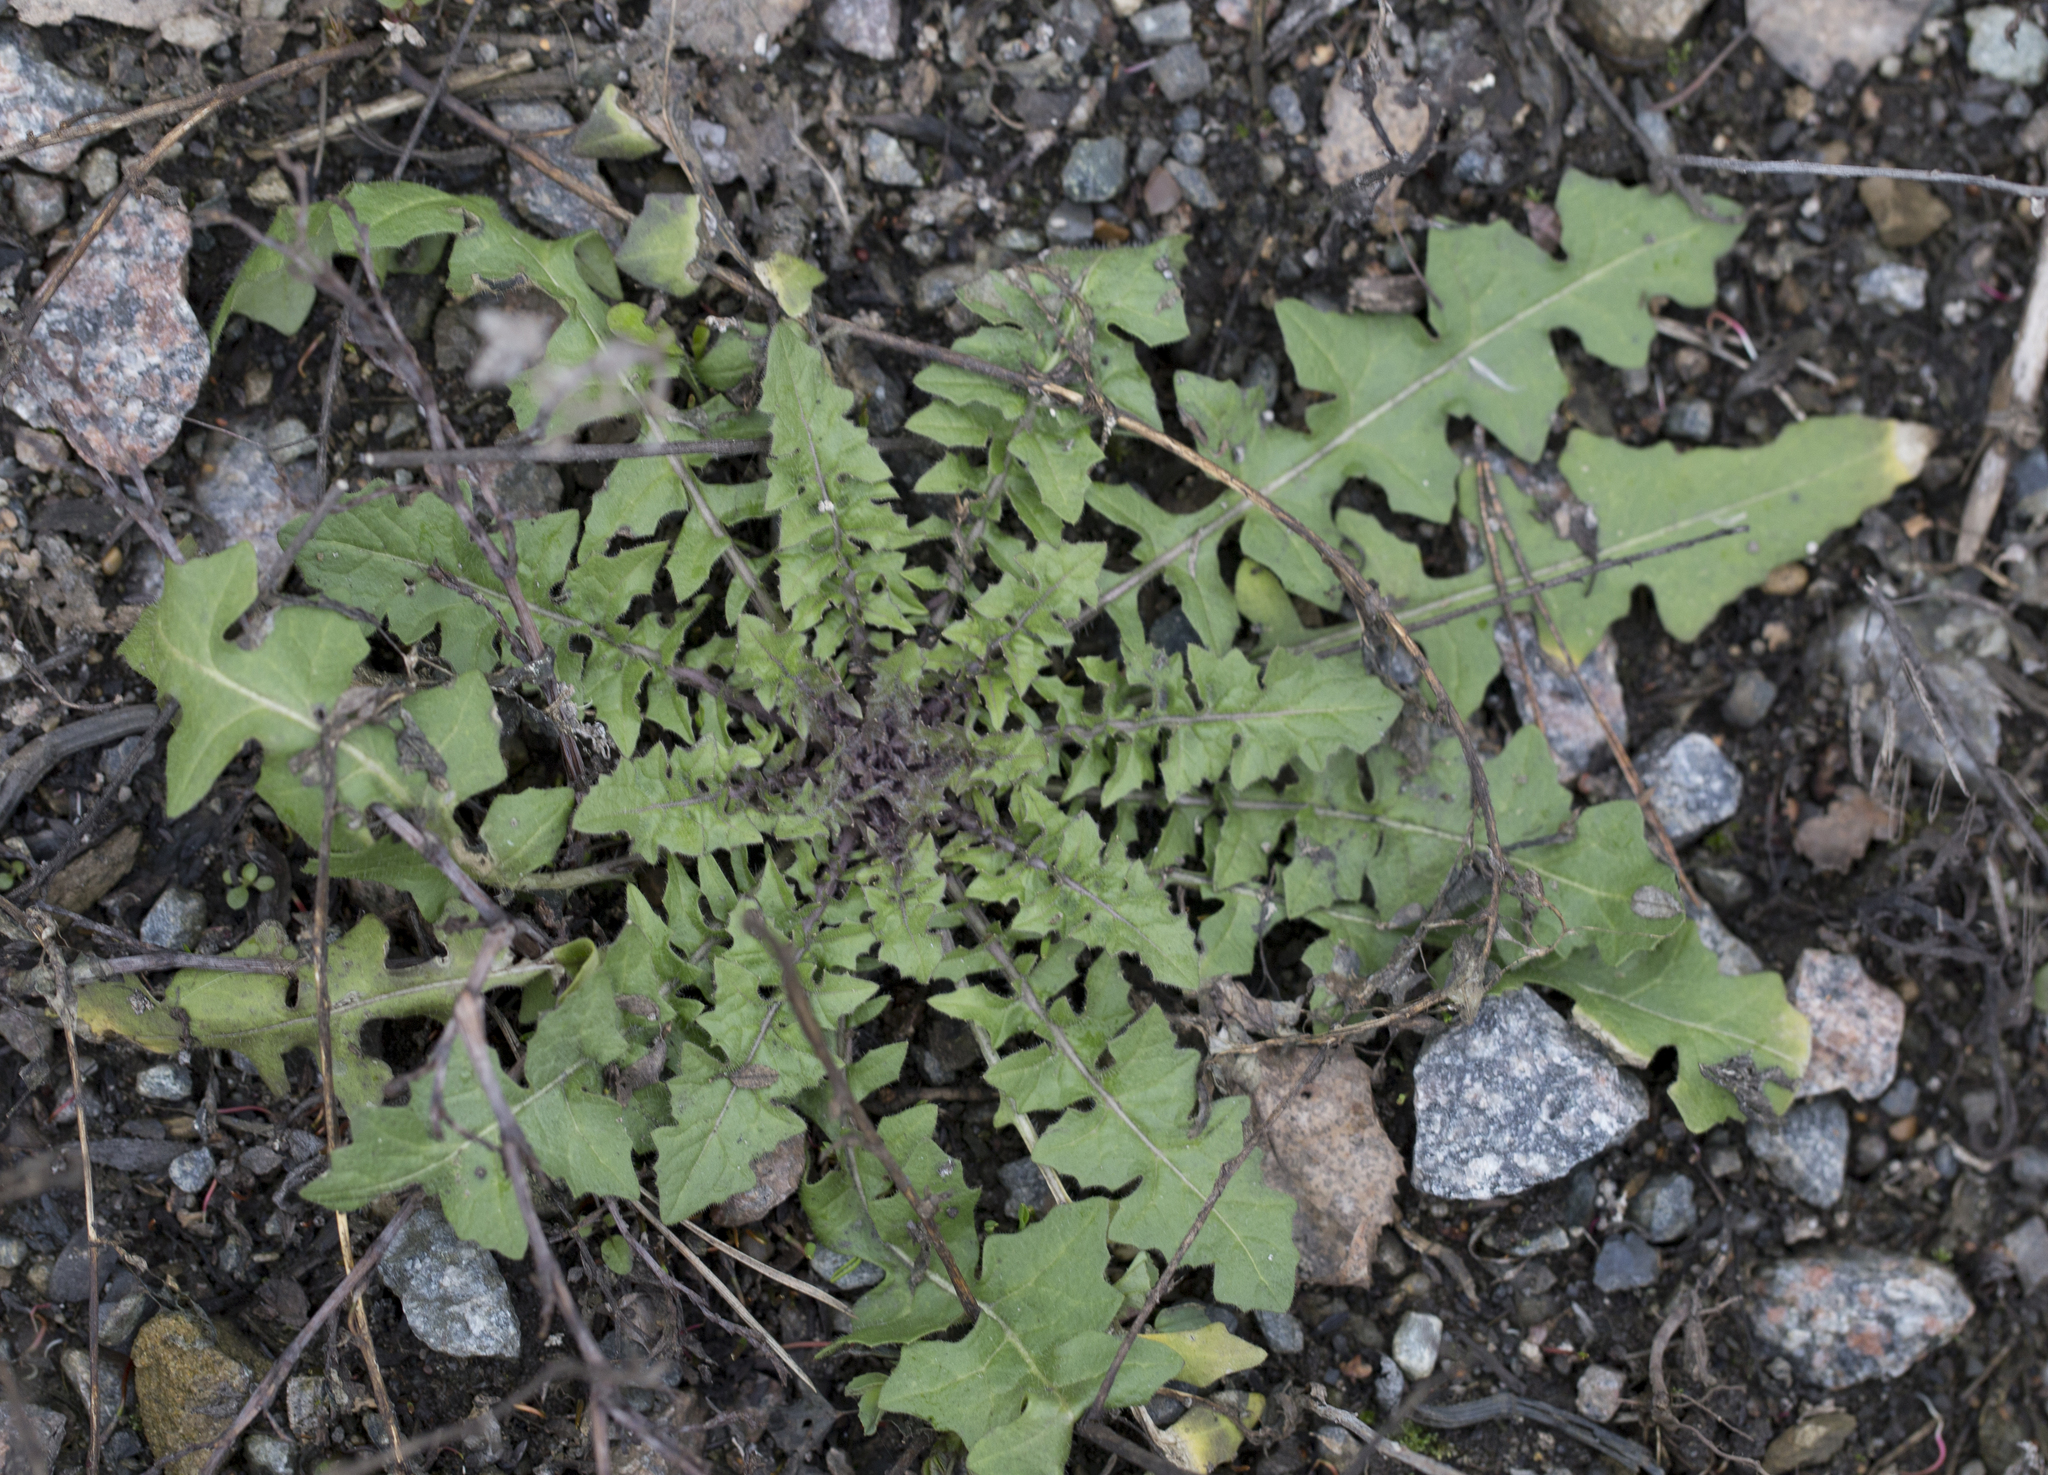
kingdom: Plantae
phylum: Tracheophyta
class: Magnoliopsida
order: Brassicales
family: Brassicaceae
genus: Sisymbrium
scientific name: Sisymbrium loeselii
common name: False london-rocket
